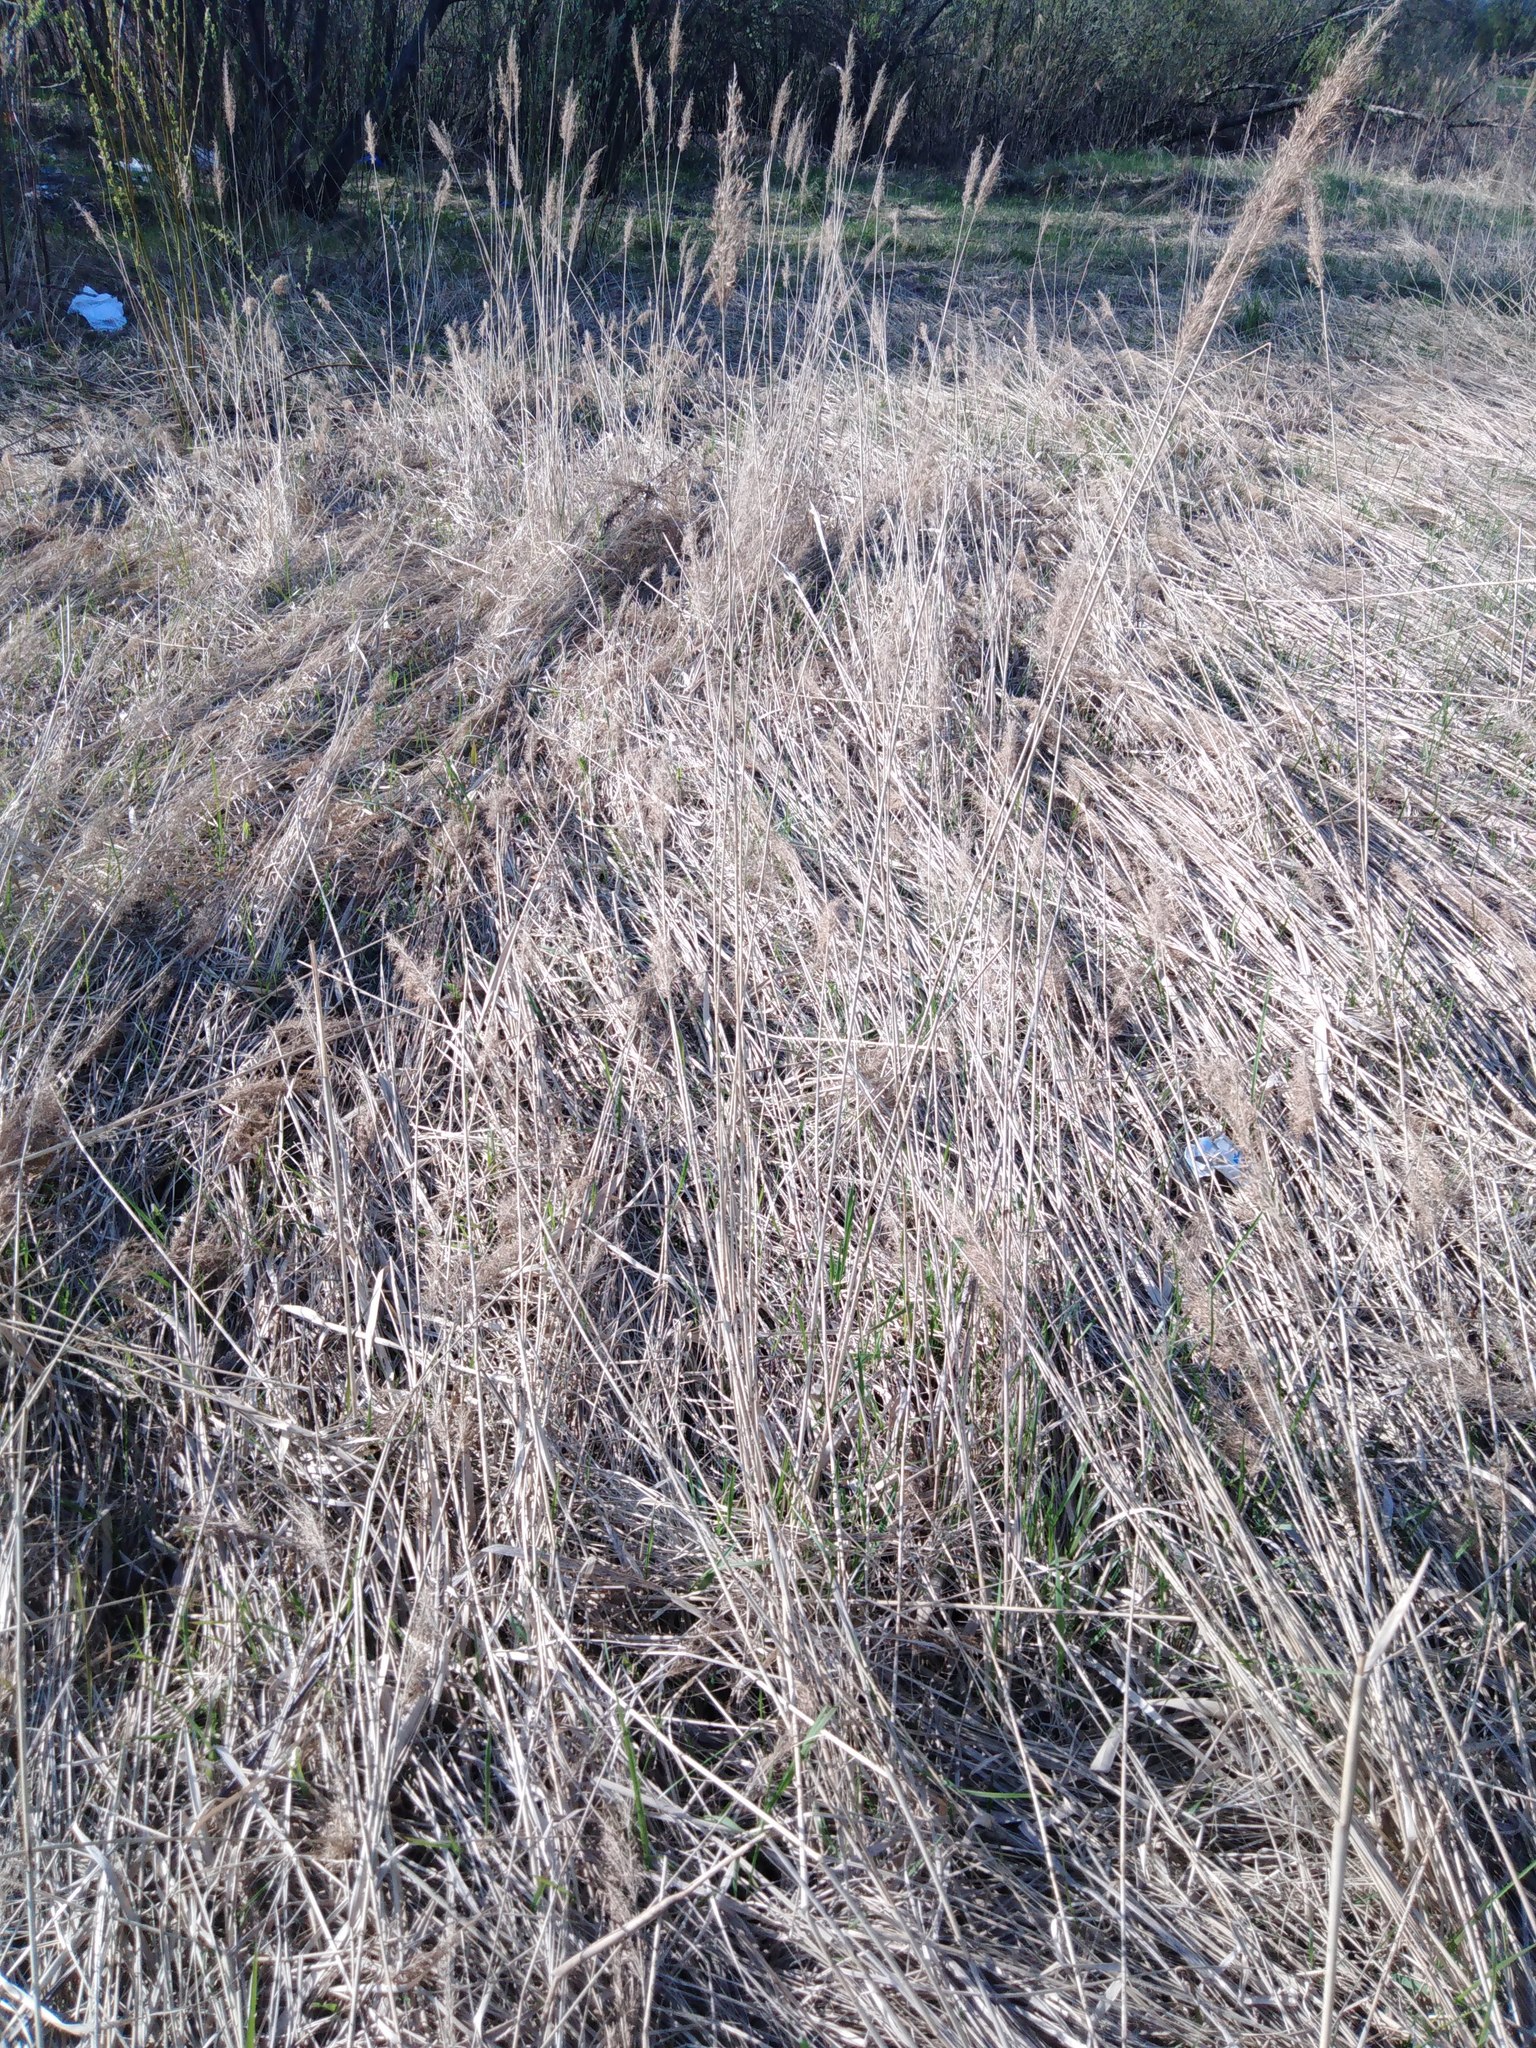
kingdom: Plantae
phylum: Tracheophyta
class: Liliopsida
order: Poales
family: Poaceae
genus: Calamagrostis
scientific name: Calamagrostis epigejos
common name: Wood small-reed
